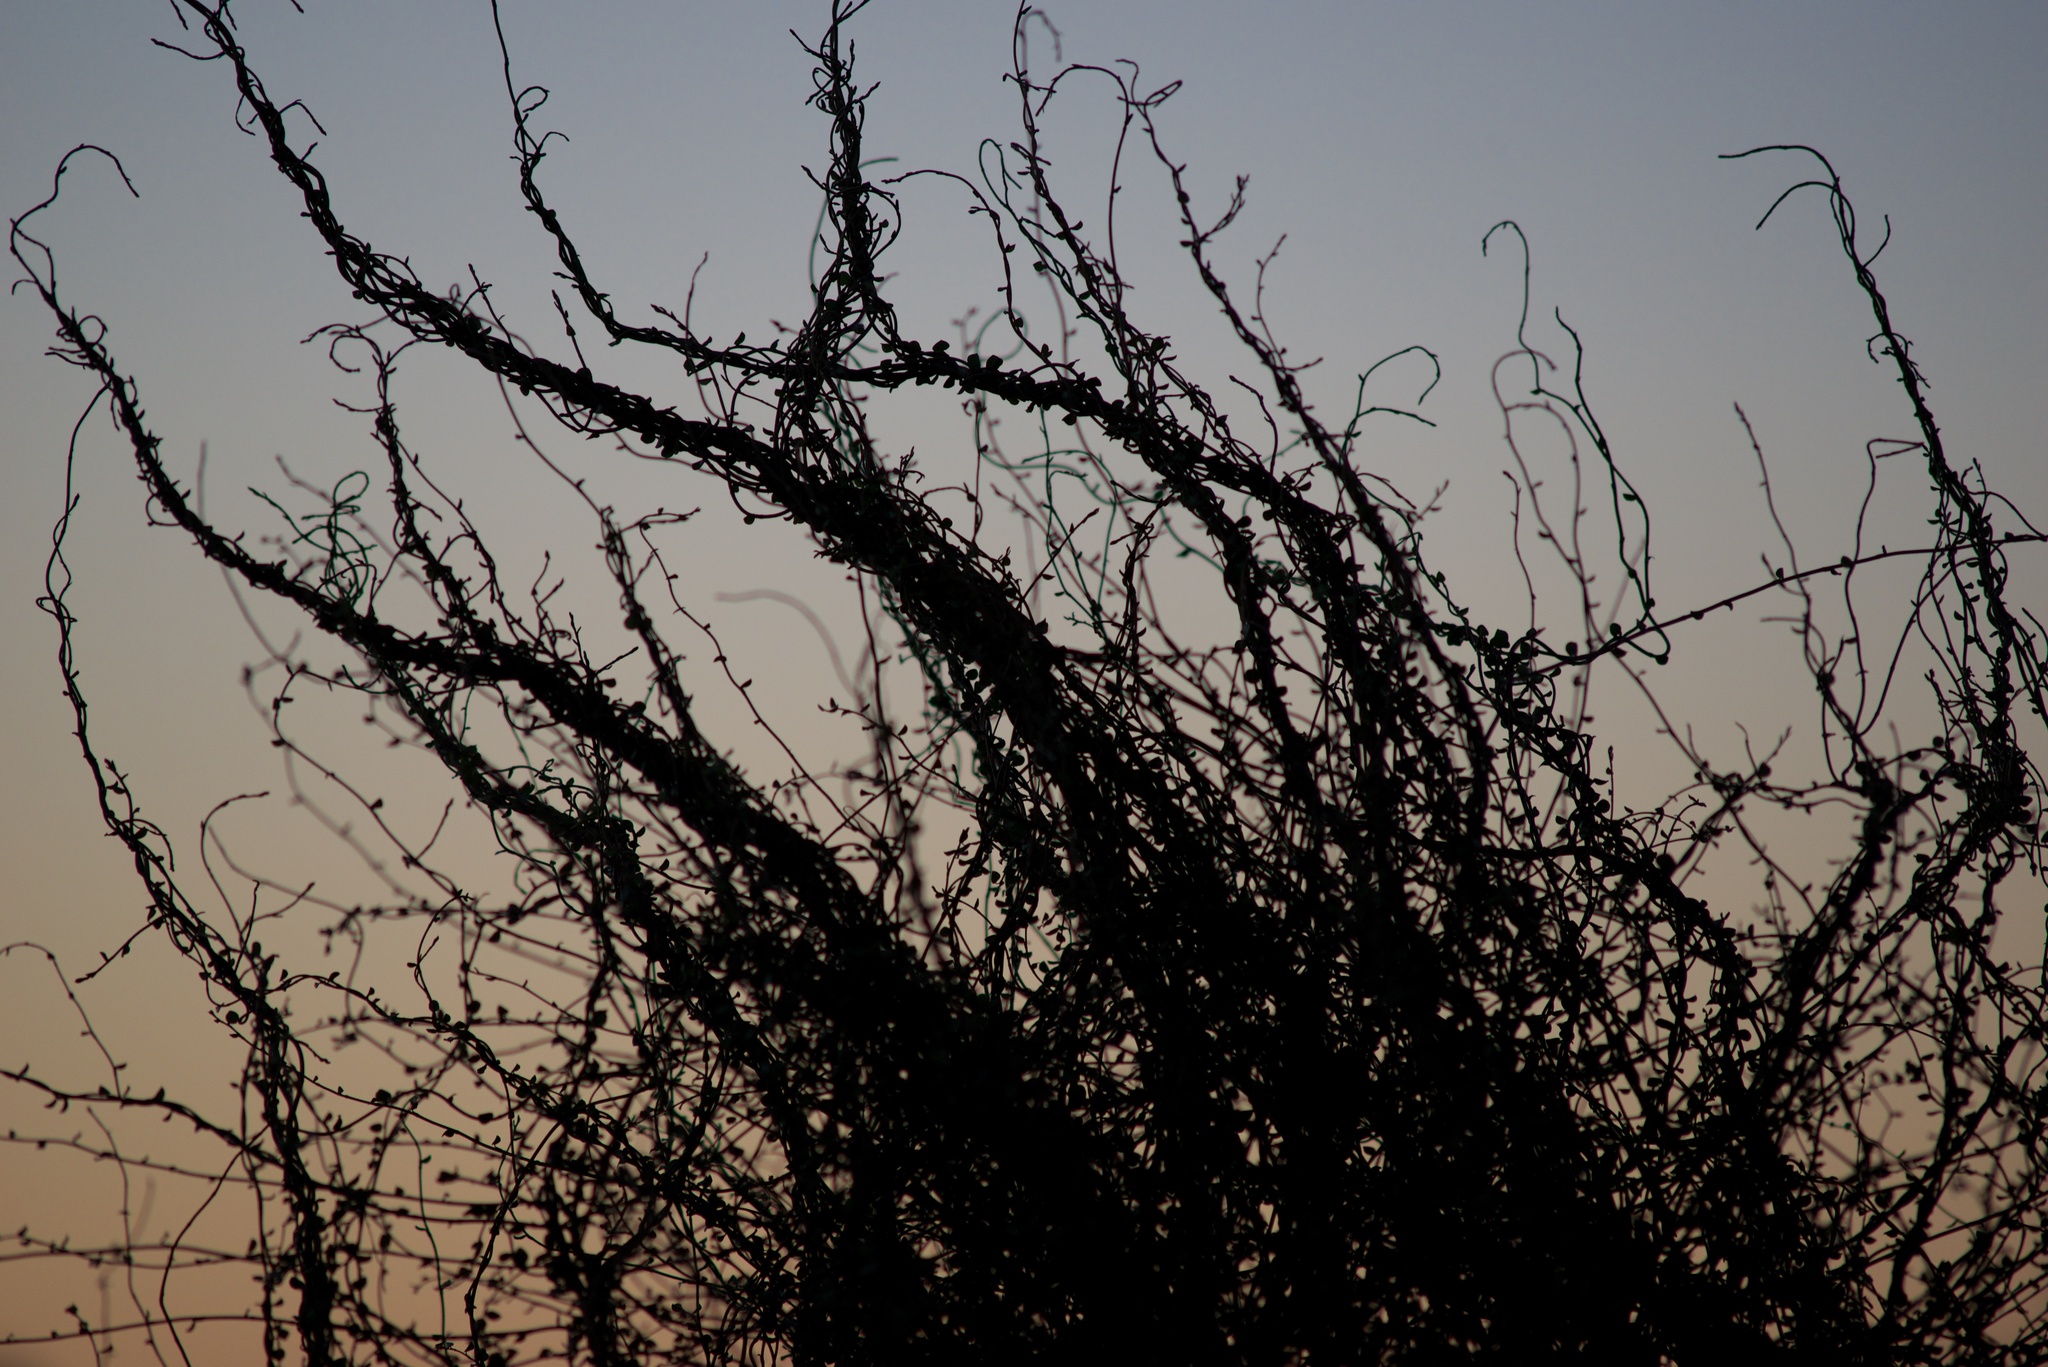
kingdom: Plantae
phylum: Tracheophyta
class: Magnoliopsida
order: Caryophyllales
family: Polygonaceae
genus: Muehlenbeckia
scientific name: Muehlenbeckia complexa
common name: Wireplant
